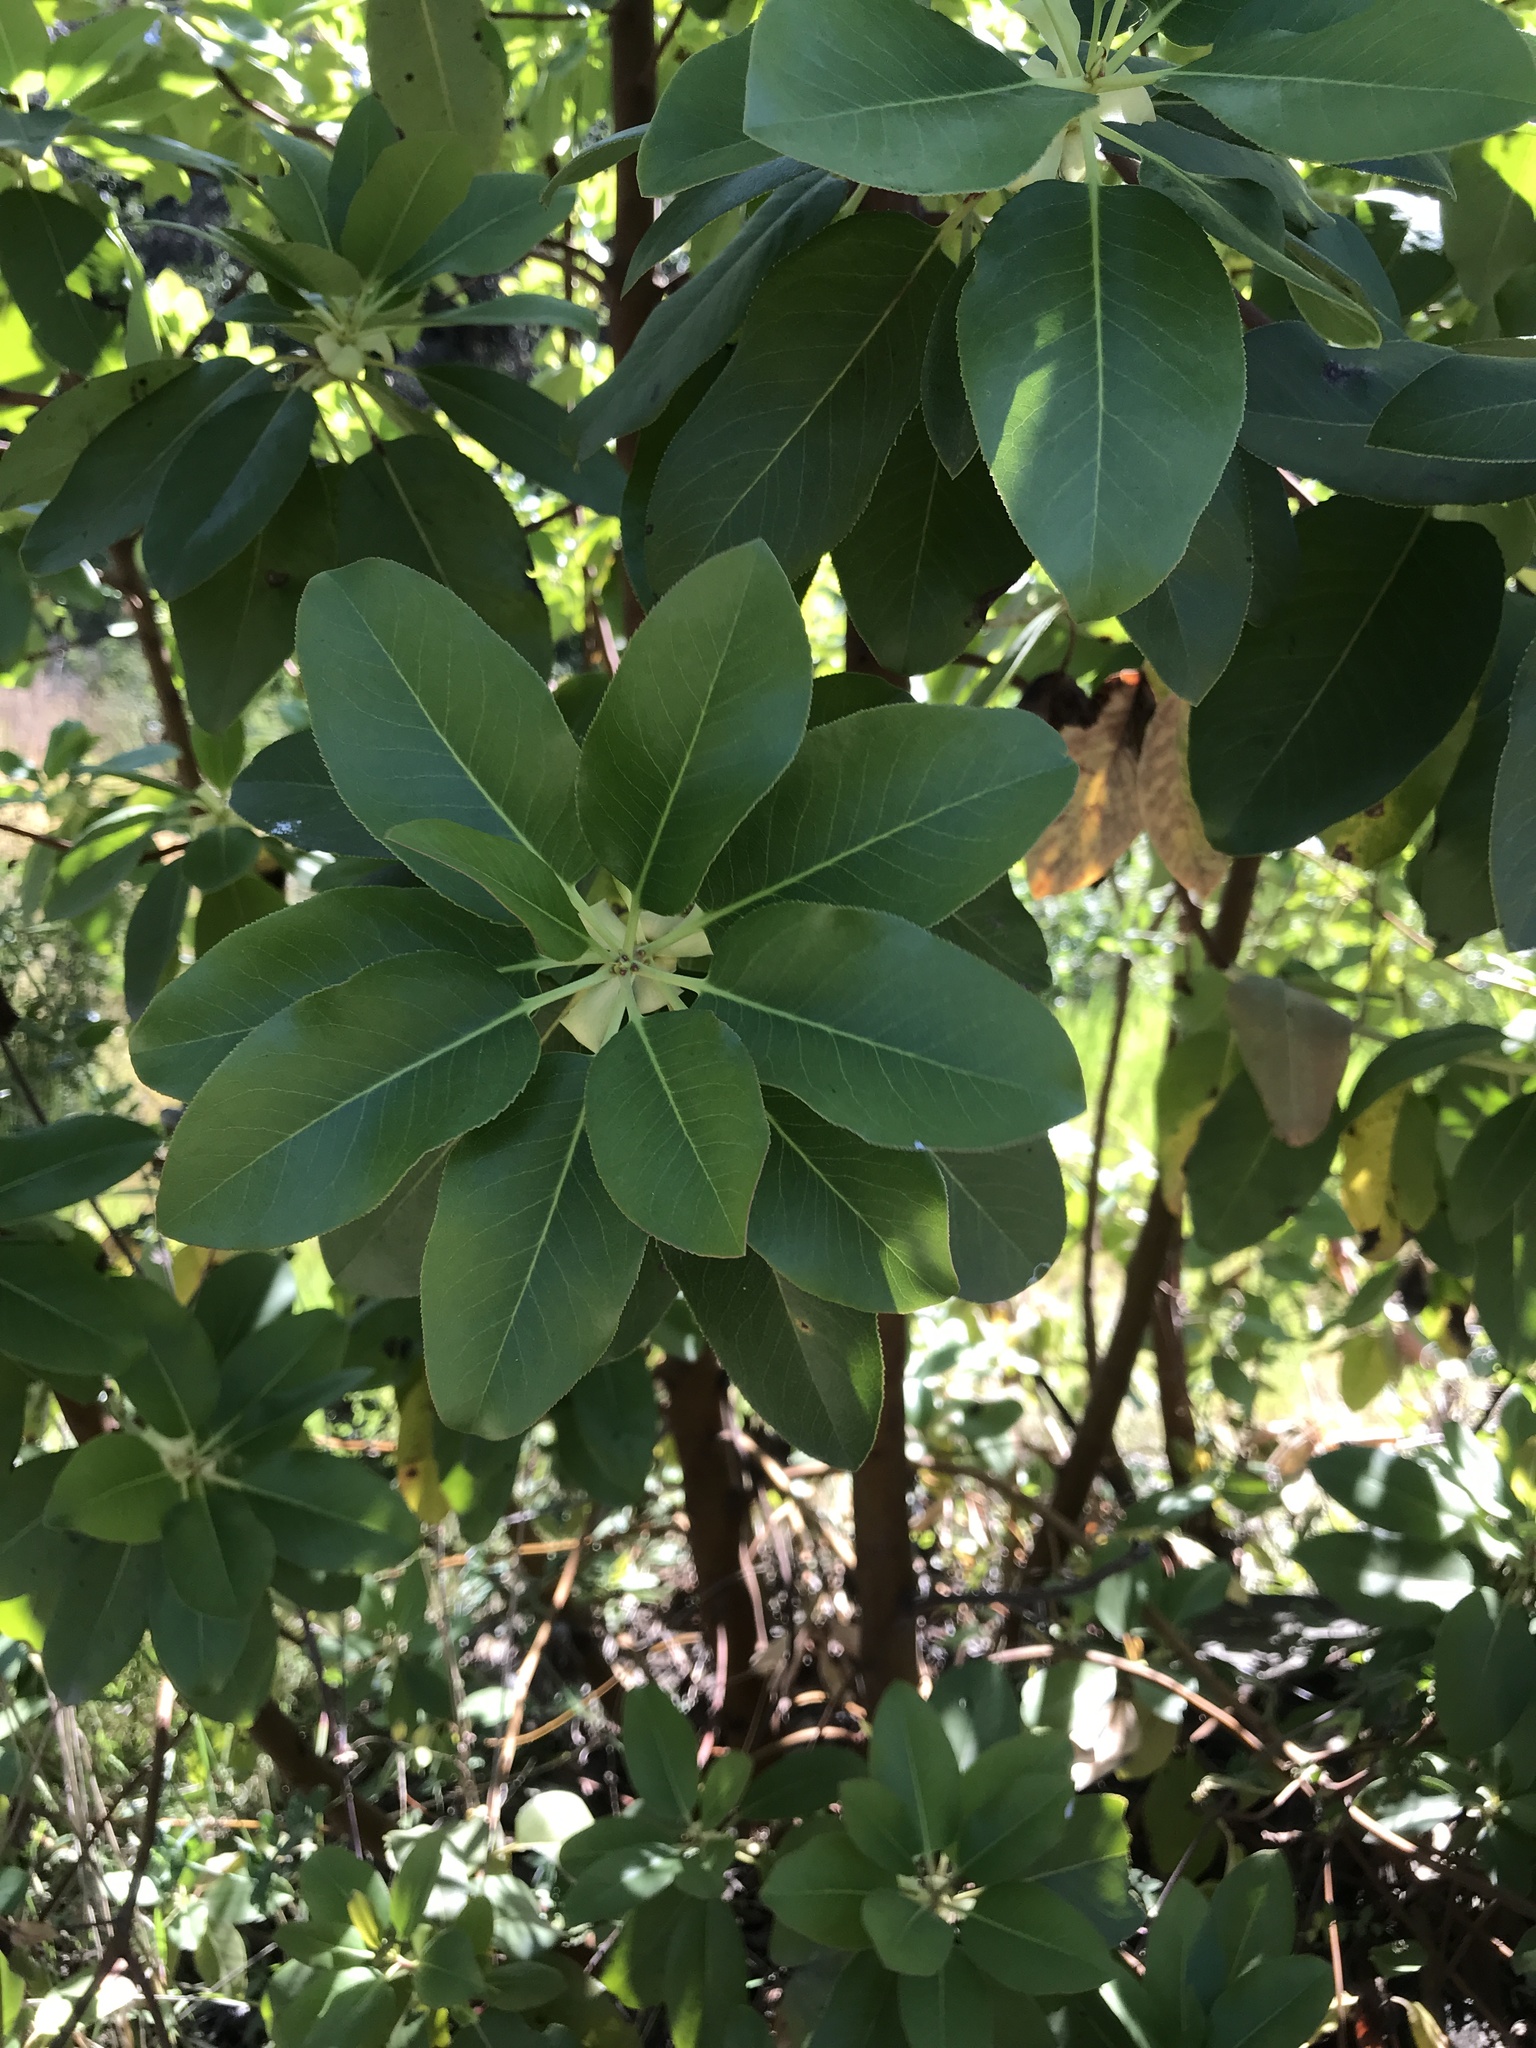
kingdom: Plantae
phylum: Tracheophyta
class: Magnoliopsida
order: Ericales
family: Ericaceae
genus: Arbutus
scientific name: Arbutus menziesii
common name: Pacific madrone
